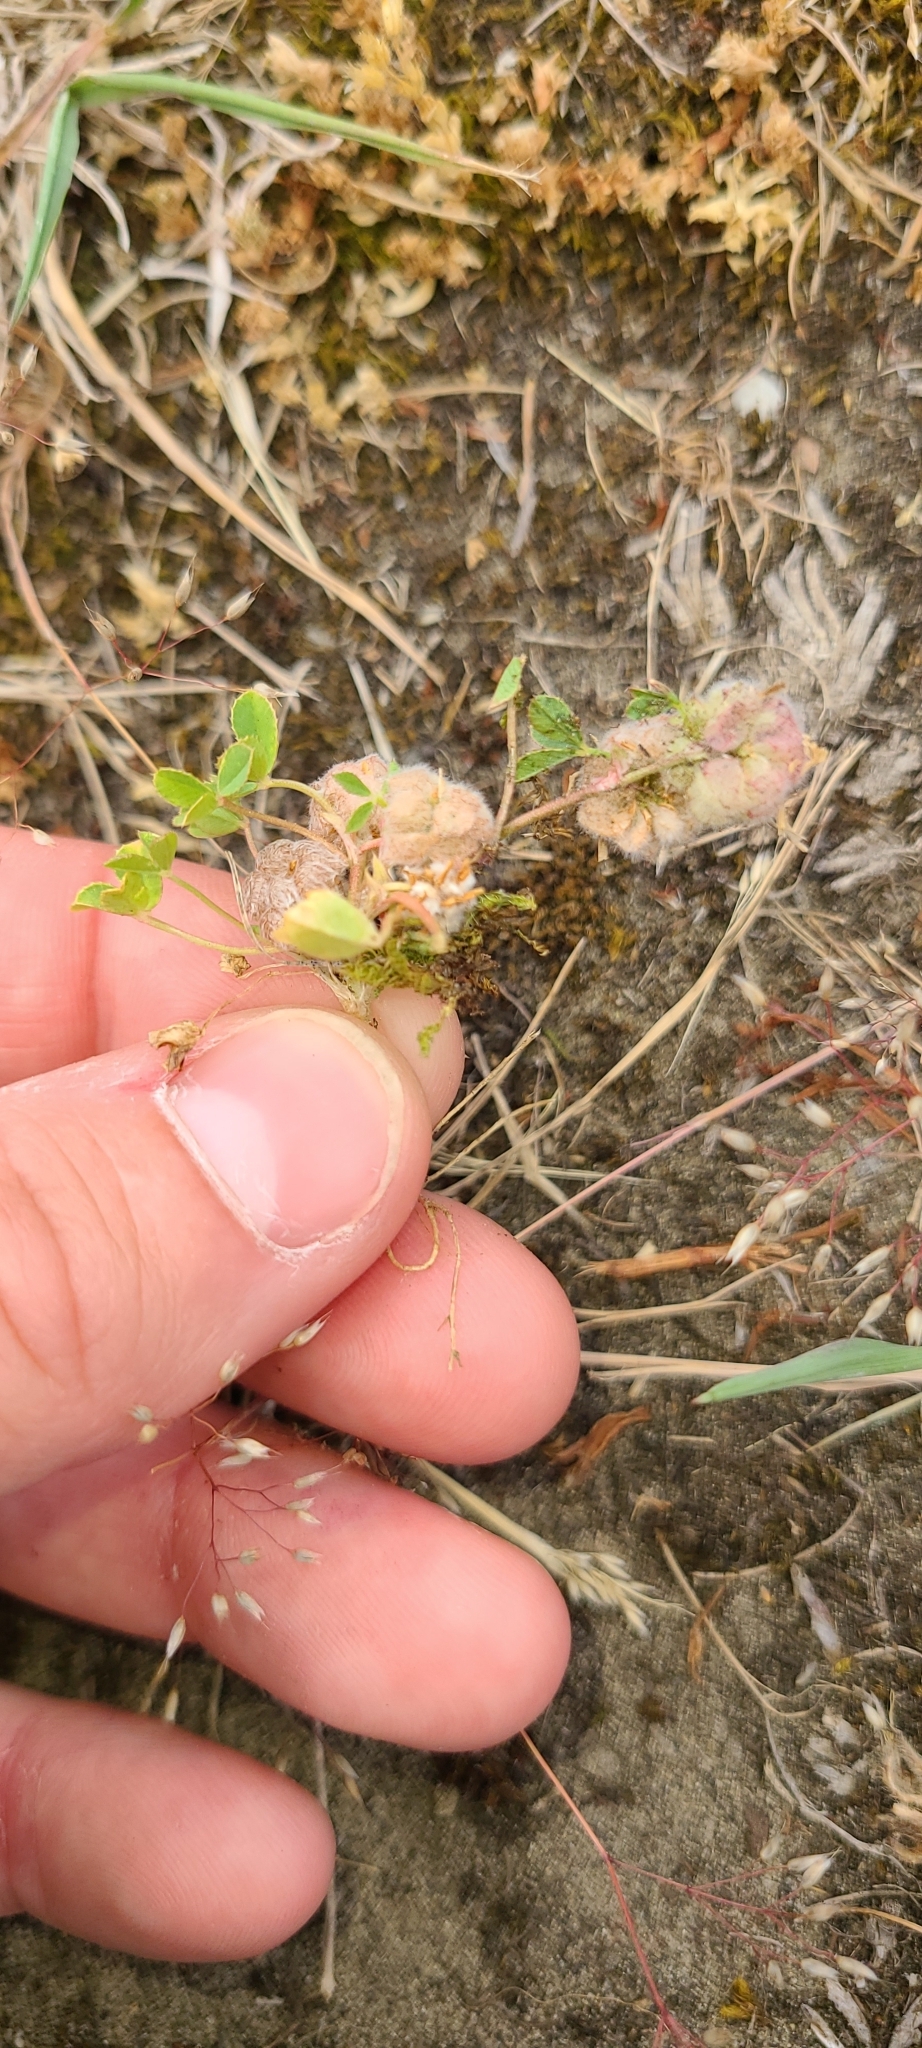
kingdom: Plantae
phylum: Tracheophyta
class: Magnoliopsida
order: Fabales
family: Fabaceae
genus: Trifolium
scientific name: Trifolium tomentosum
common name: Woolly clover
